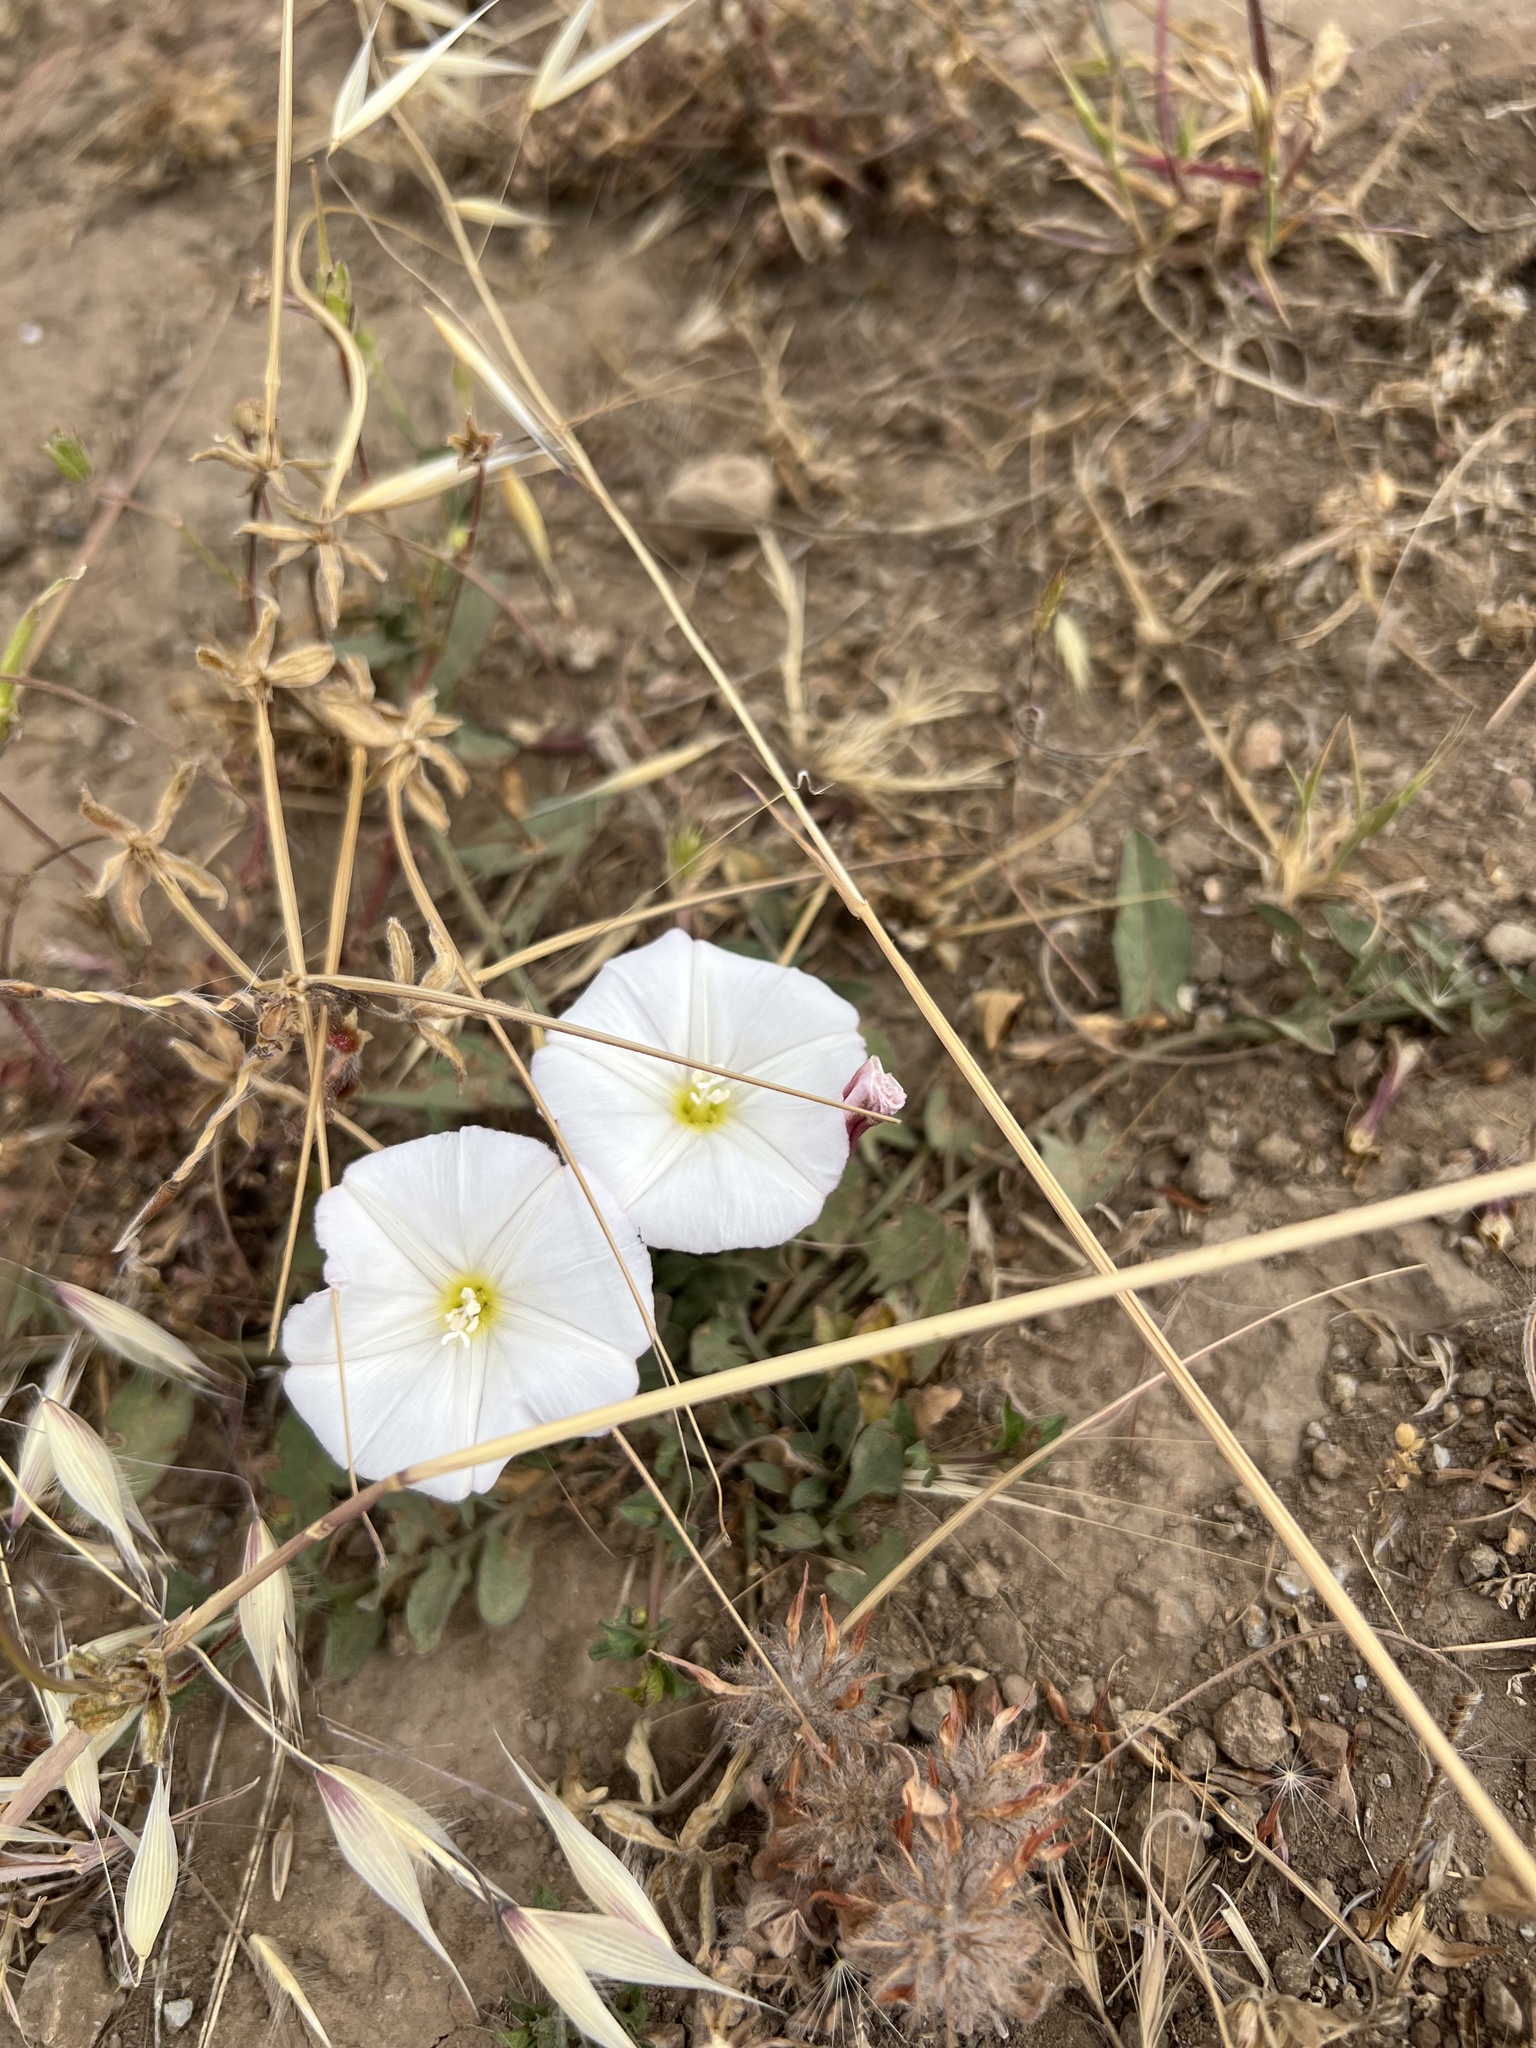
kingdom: Plantae
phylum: Tracheophyta
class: Magnoliopsida
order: Solanales
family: Convolvulaceae
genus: Convolvulus
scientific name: Convolvulus arvensis
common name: Field bindweed
